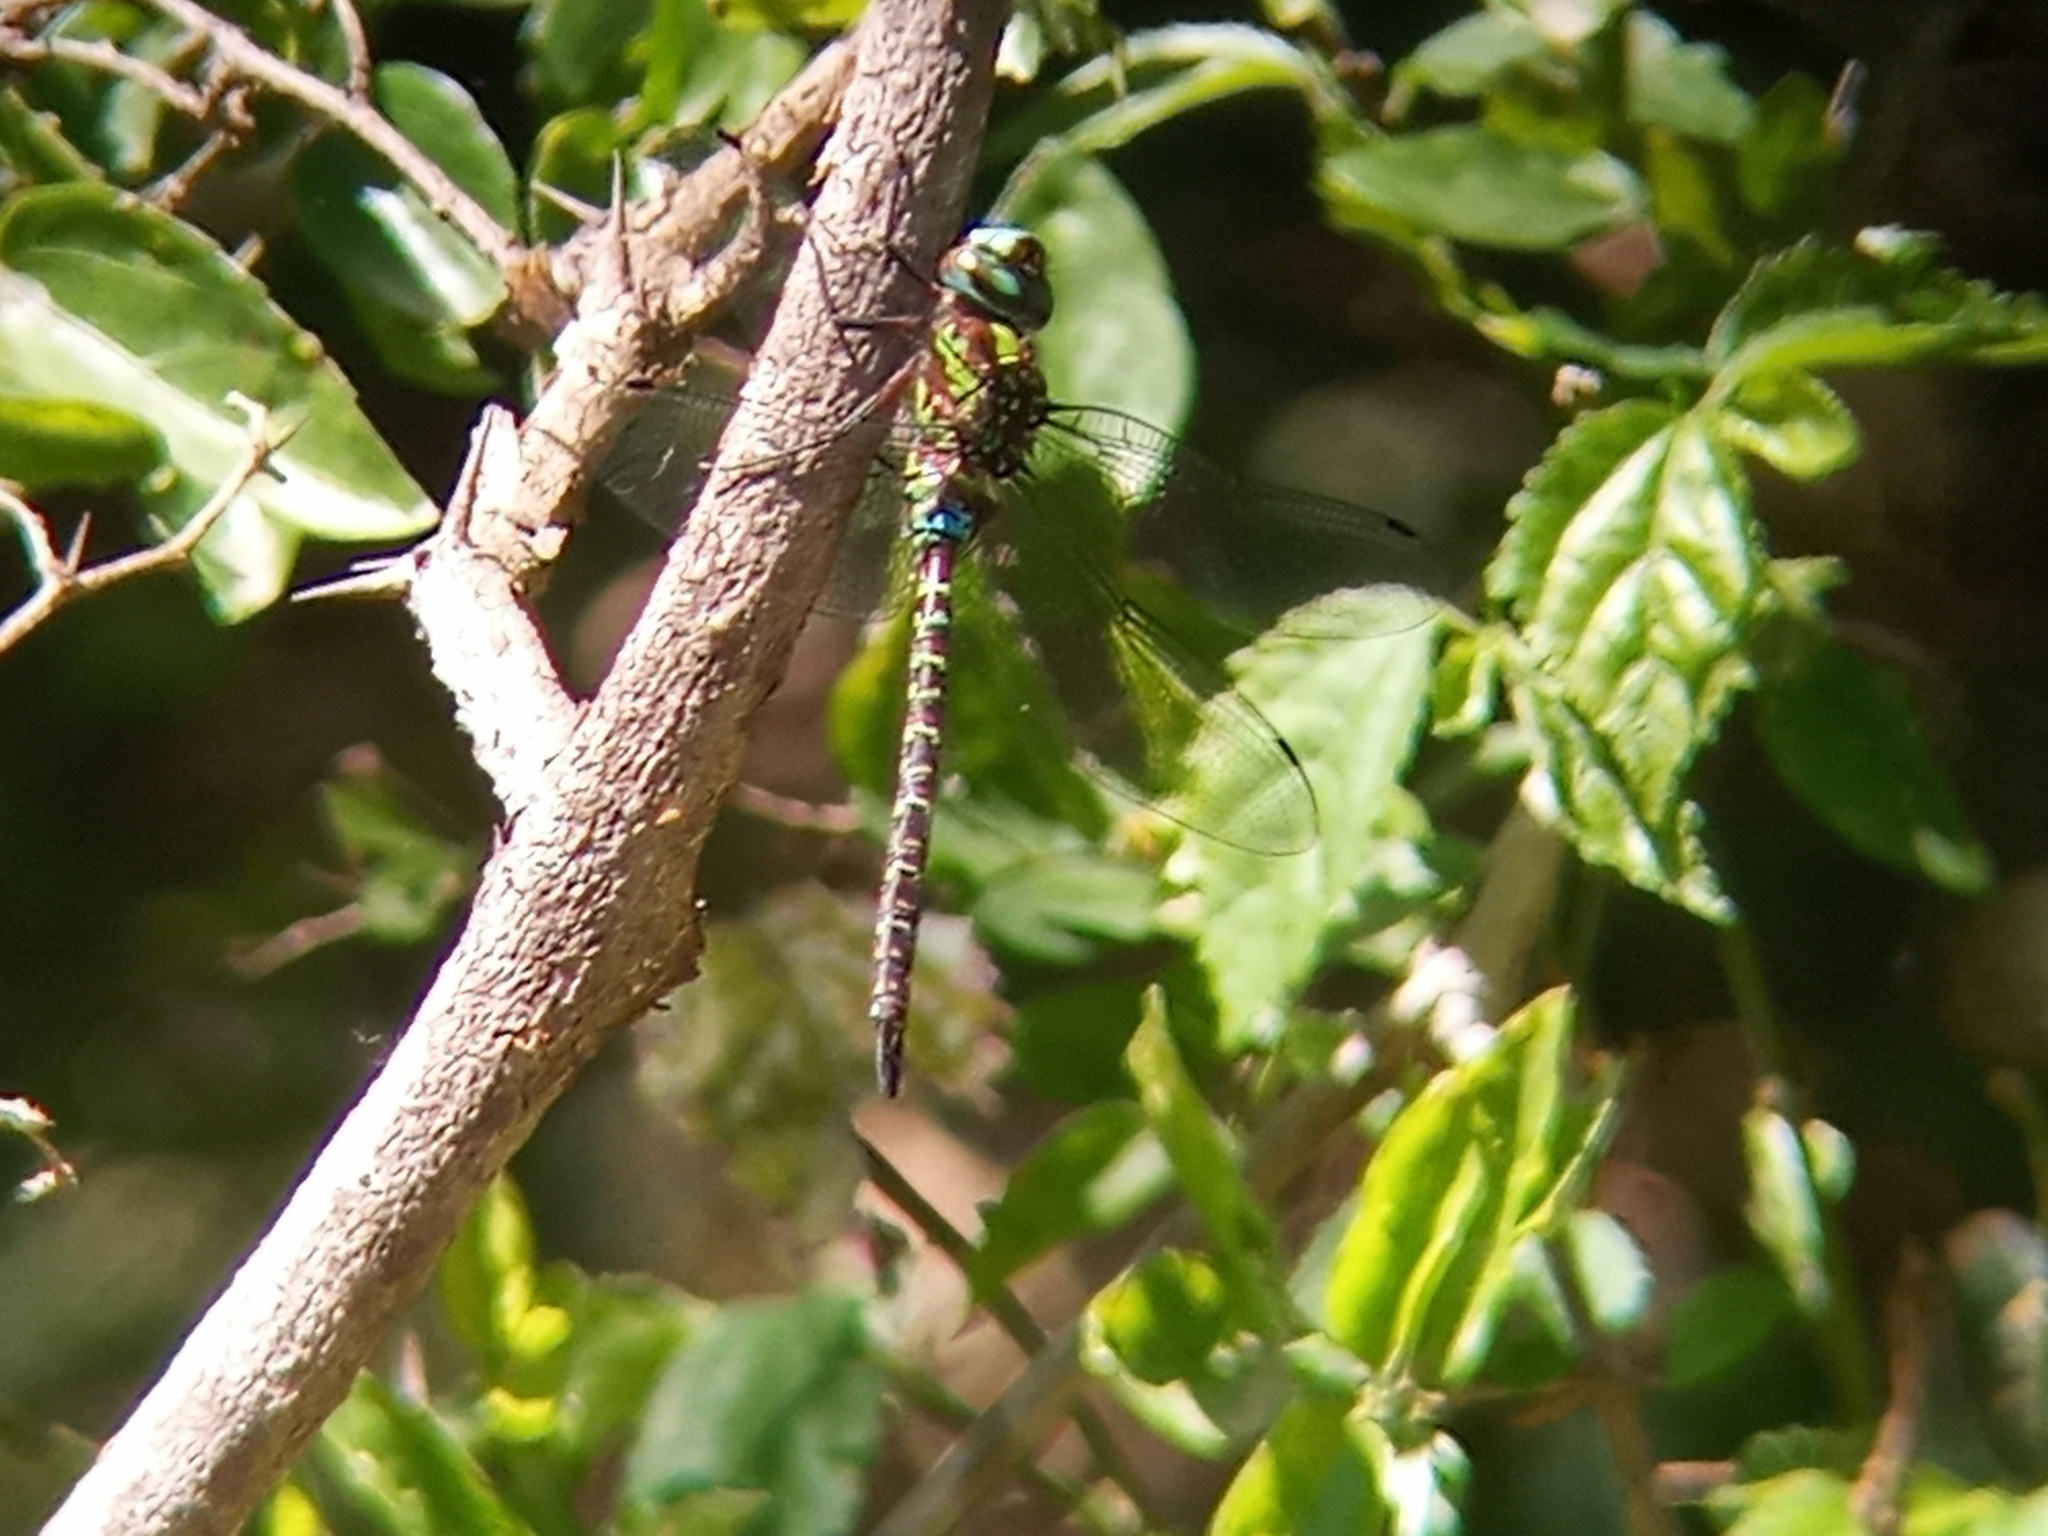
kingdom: Animalia
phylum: Arthropoda
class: Insecta
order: Odonata
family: Aeshnidae
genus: Rhionaeschna
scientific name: Rhionaeschna planaltica
